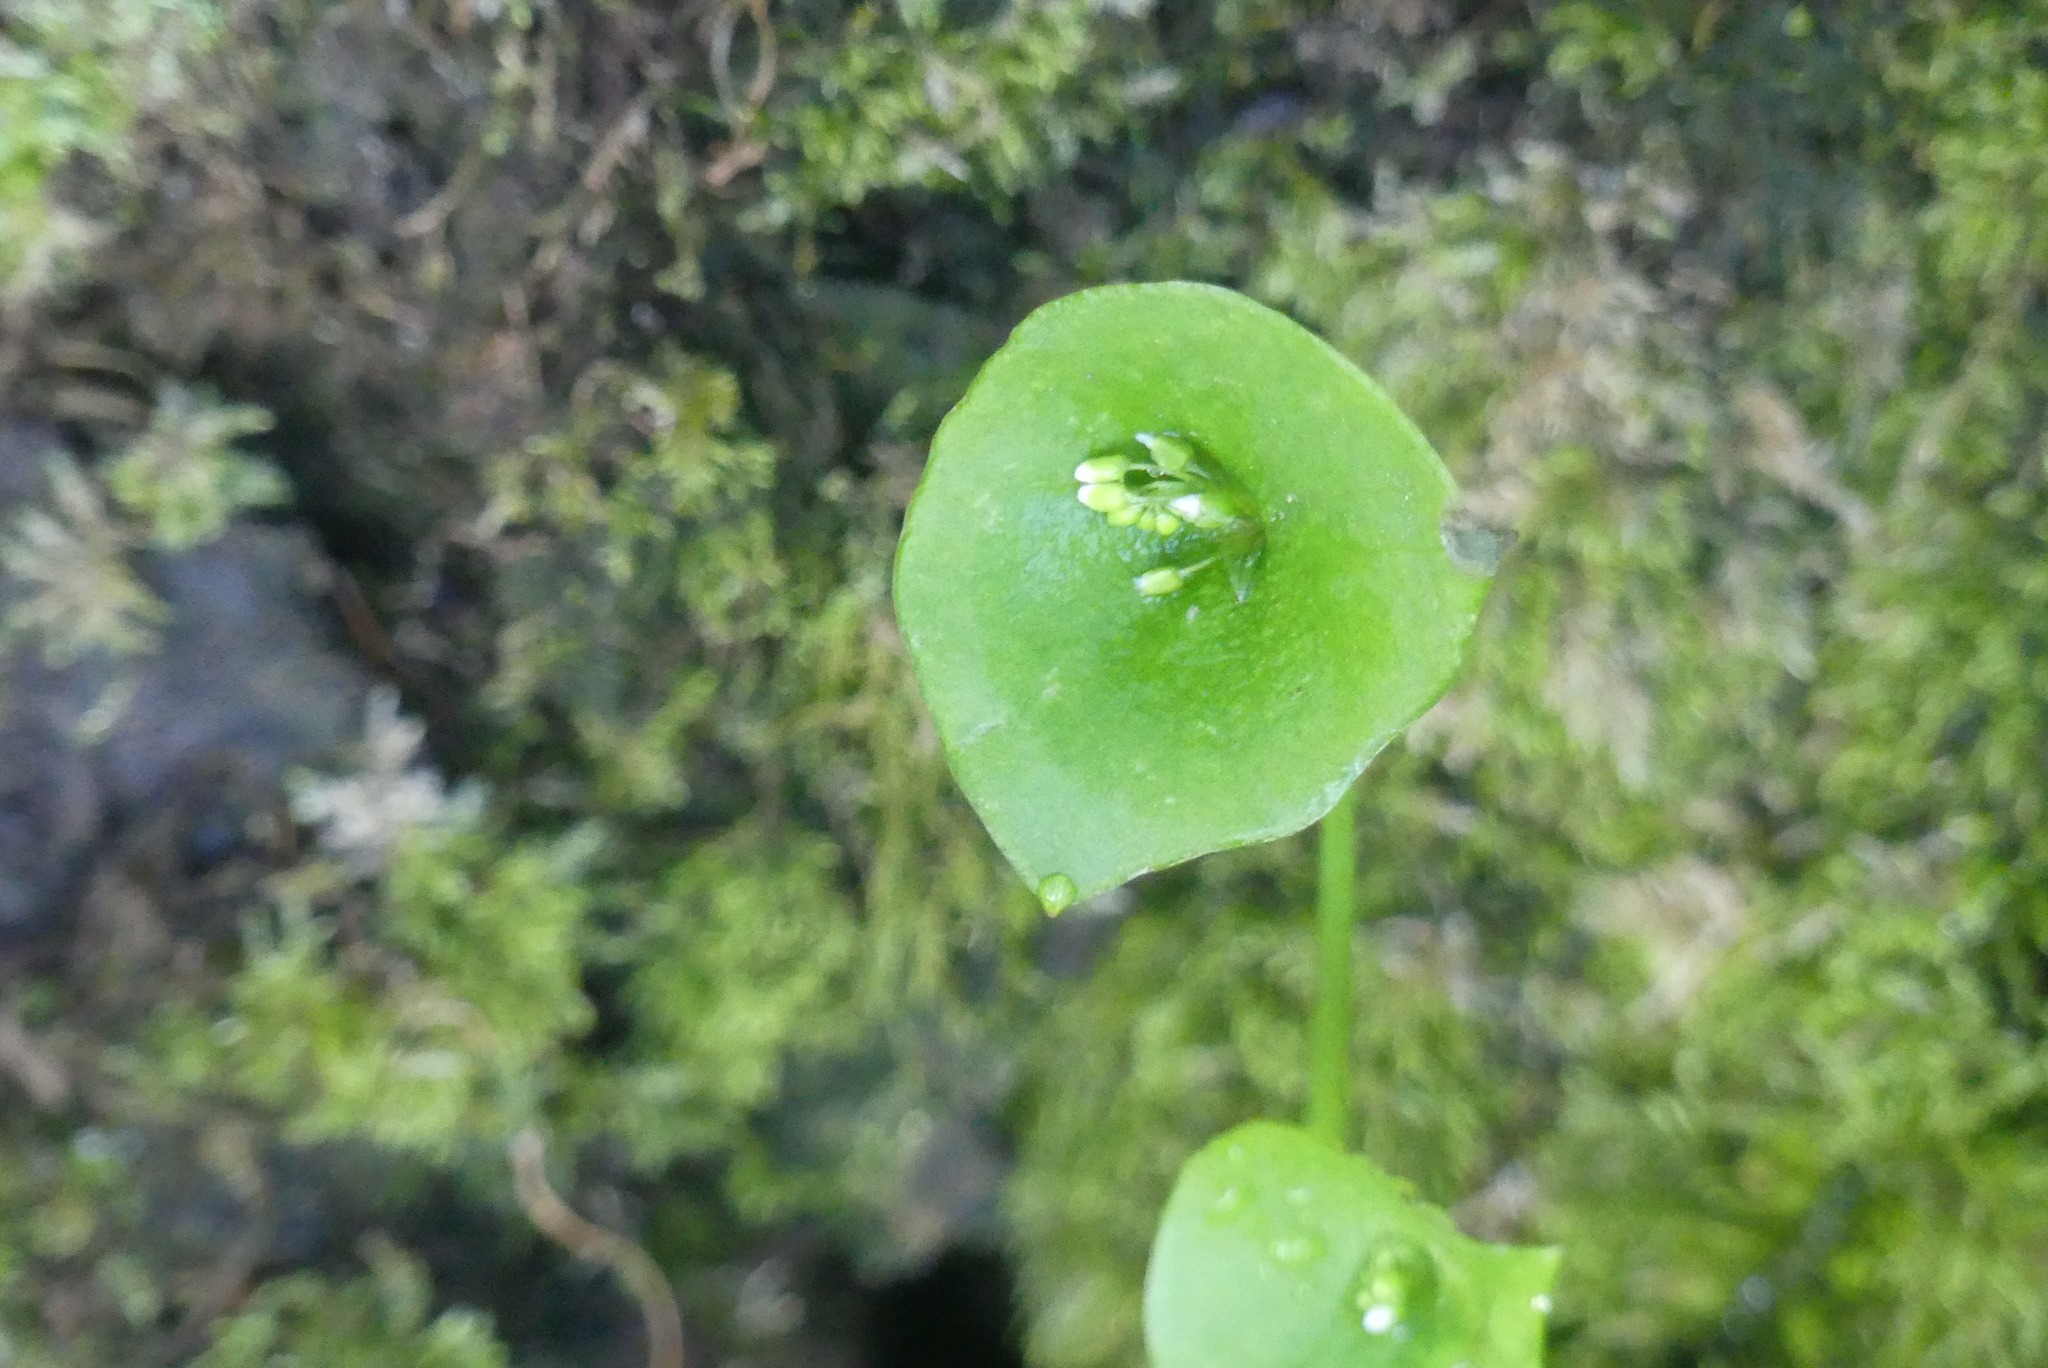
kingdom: Plantae
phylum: Tracheophyta
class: Magnoliopsida
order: Caryophyllales
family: Montiaceae
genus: Claytonia
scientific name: Claytonia perfoliata
